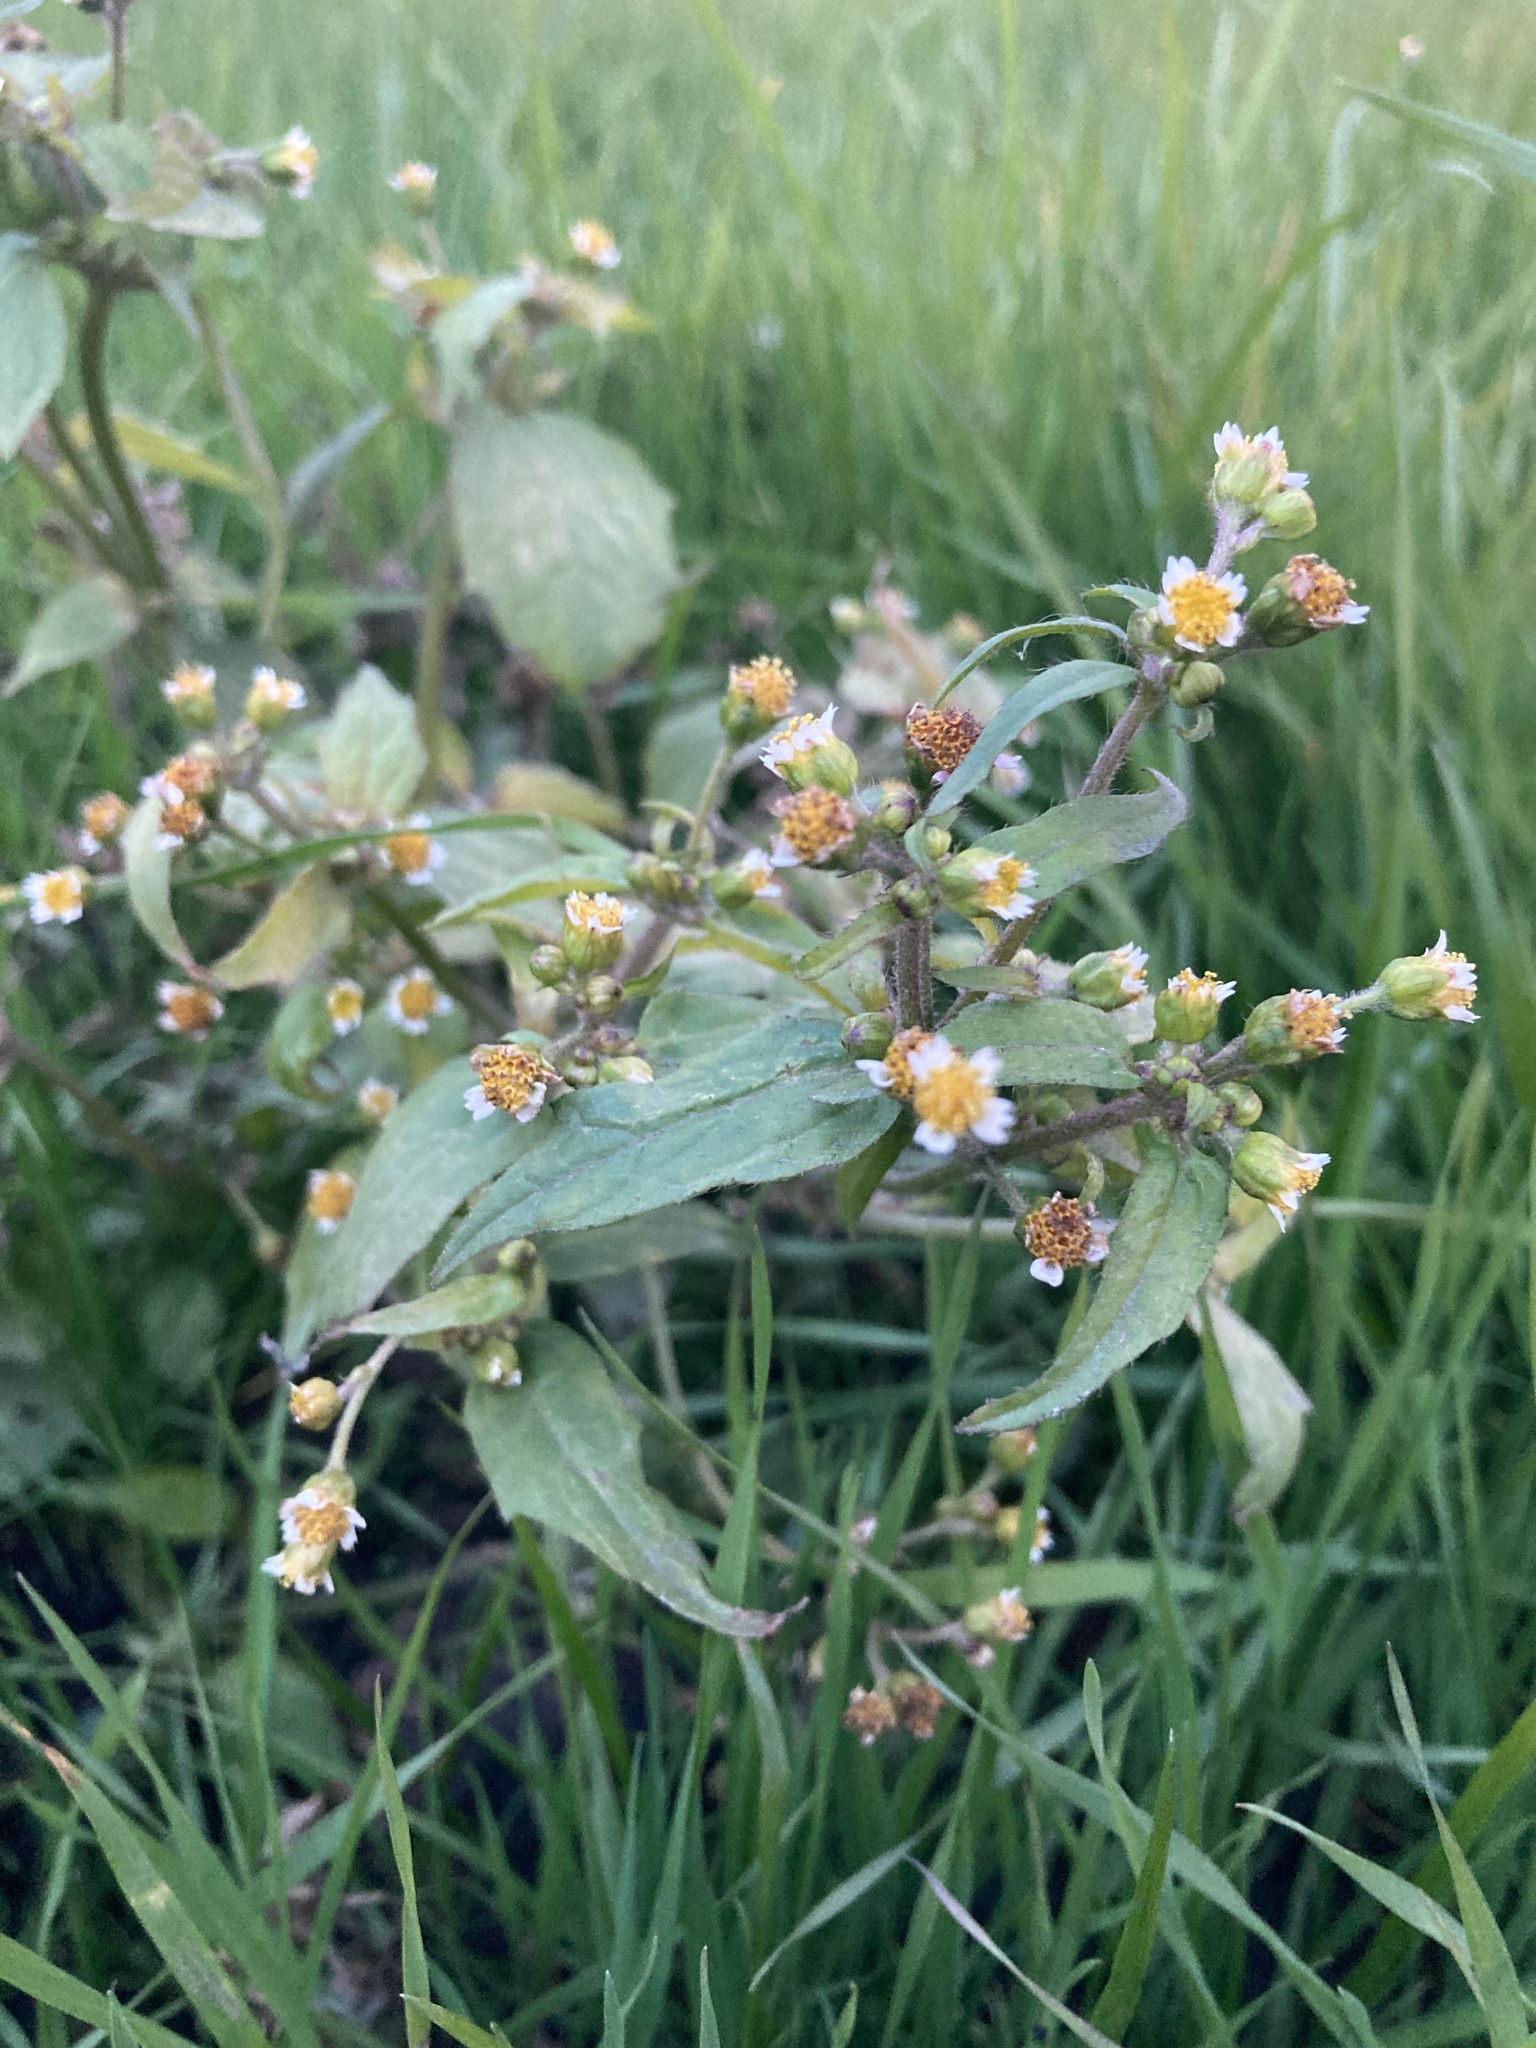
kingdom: Plantae
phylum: Tracheophyta
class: Magnoliopsida
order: Asterales
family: Asteraceae
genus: Galinsoga
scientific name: Galinsoga quadriradiata
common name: Shaggy soldier
